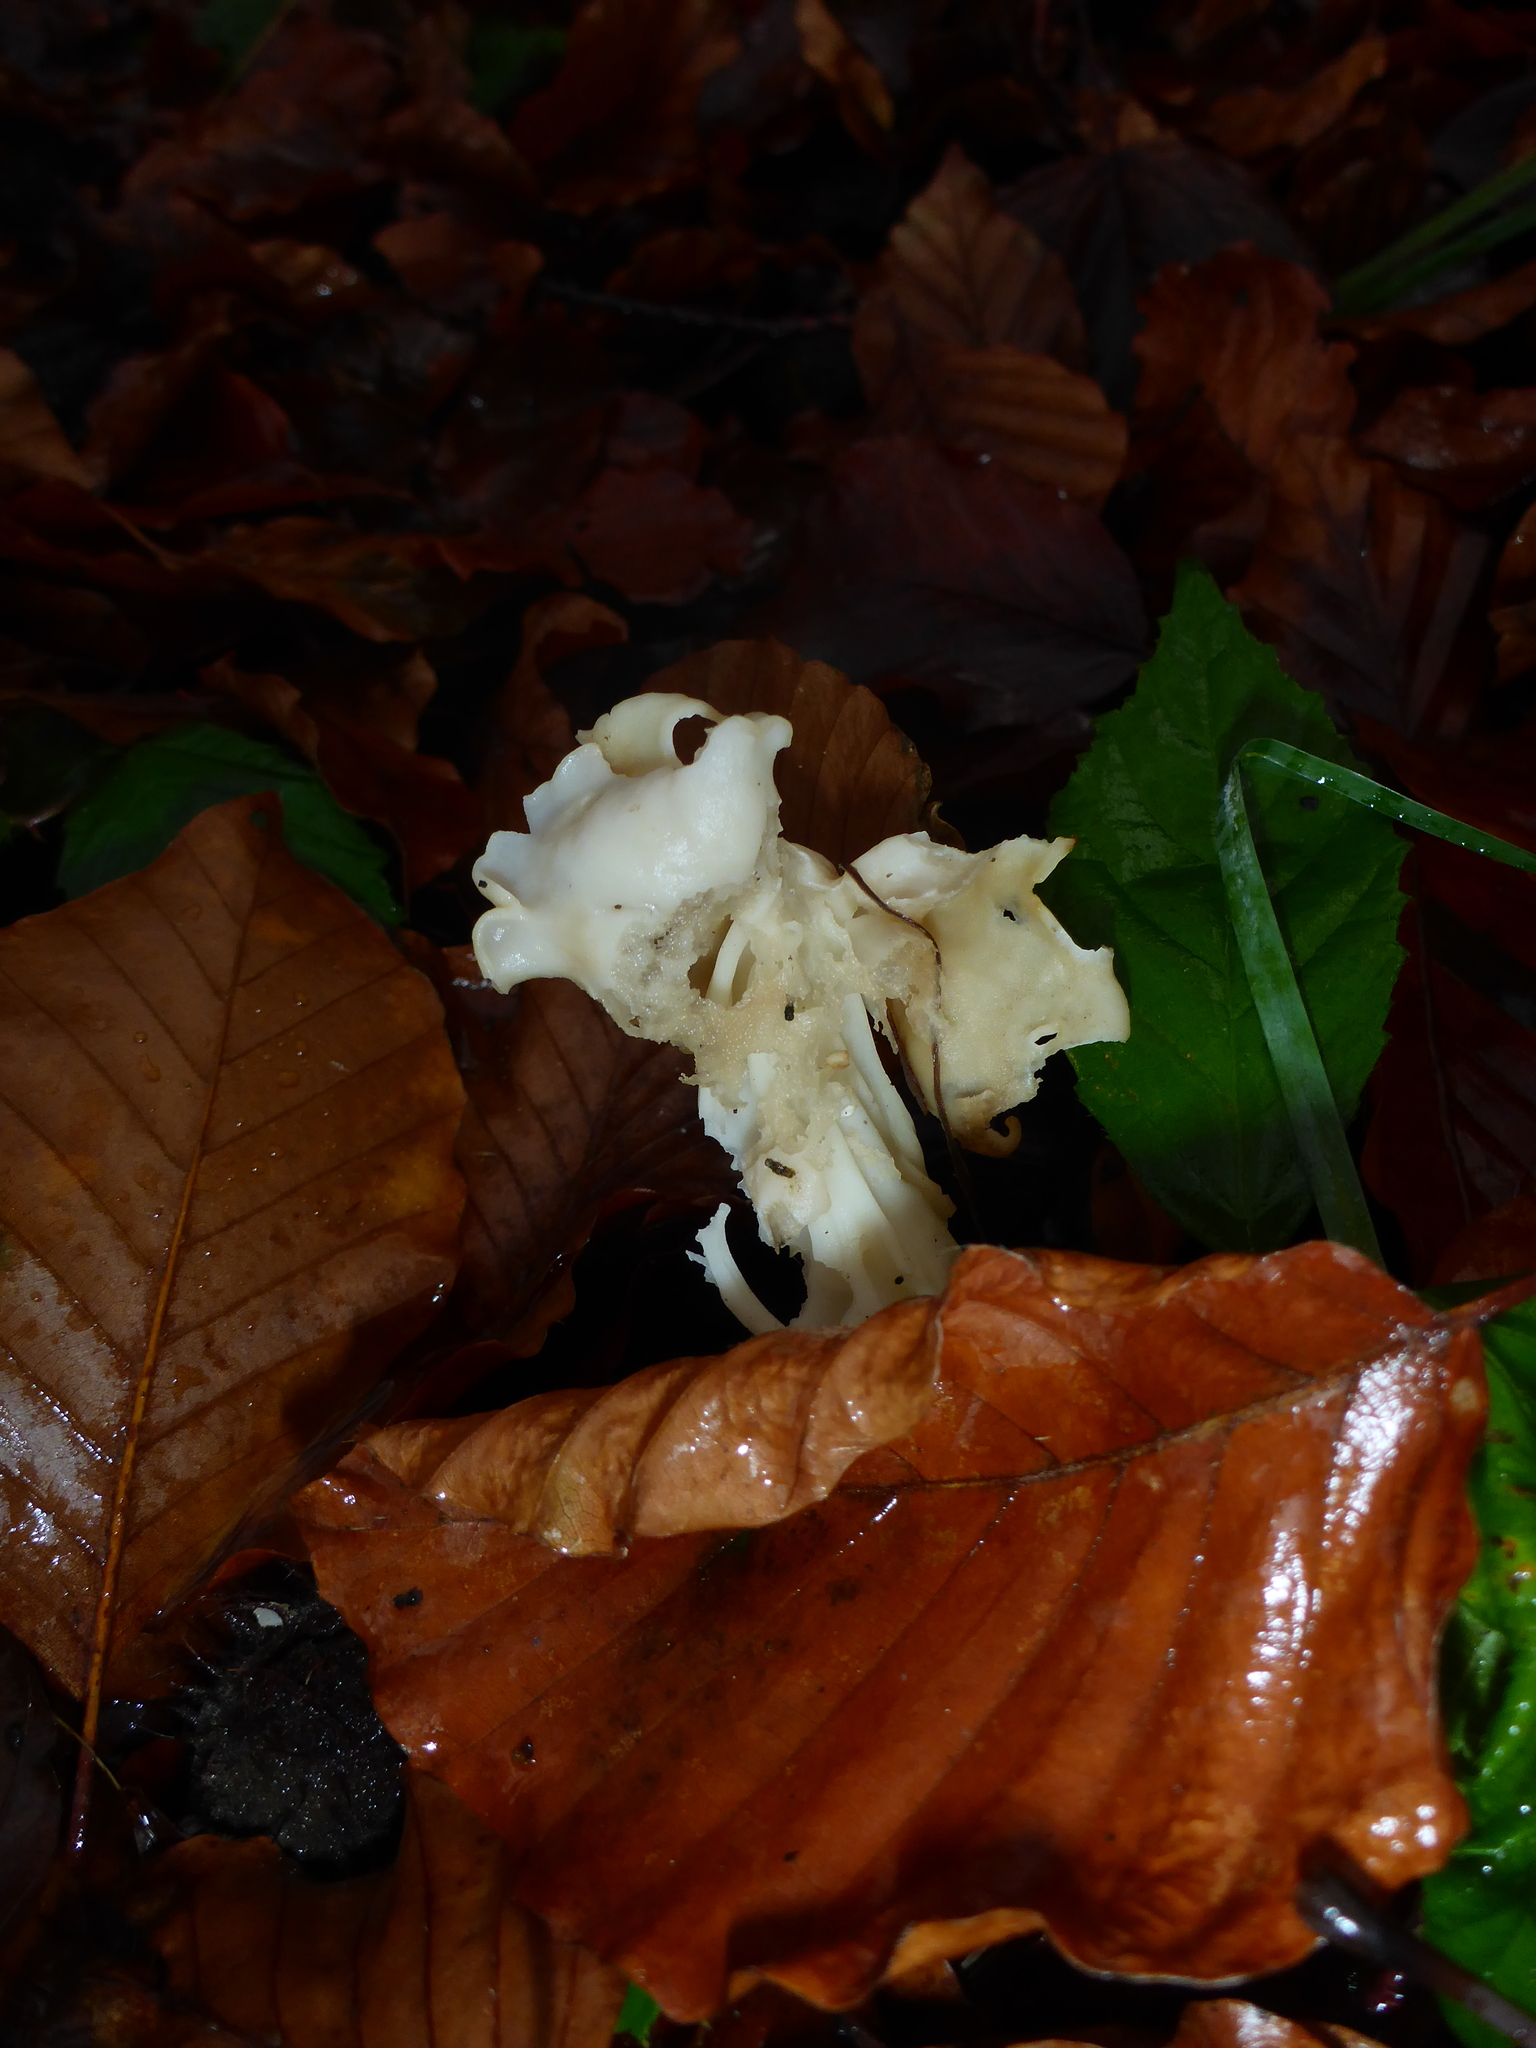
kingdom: Fungi
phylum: Ascomycota
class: Pezizomycetes
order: Pezizales
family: Helvellaceae
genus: Helvella
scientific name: Helvella crispa
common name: White saddle
